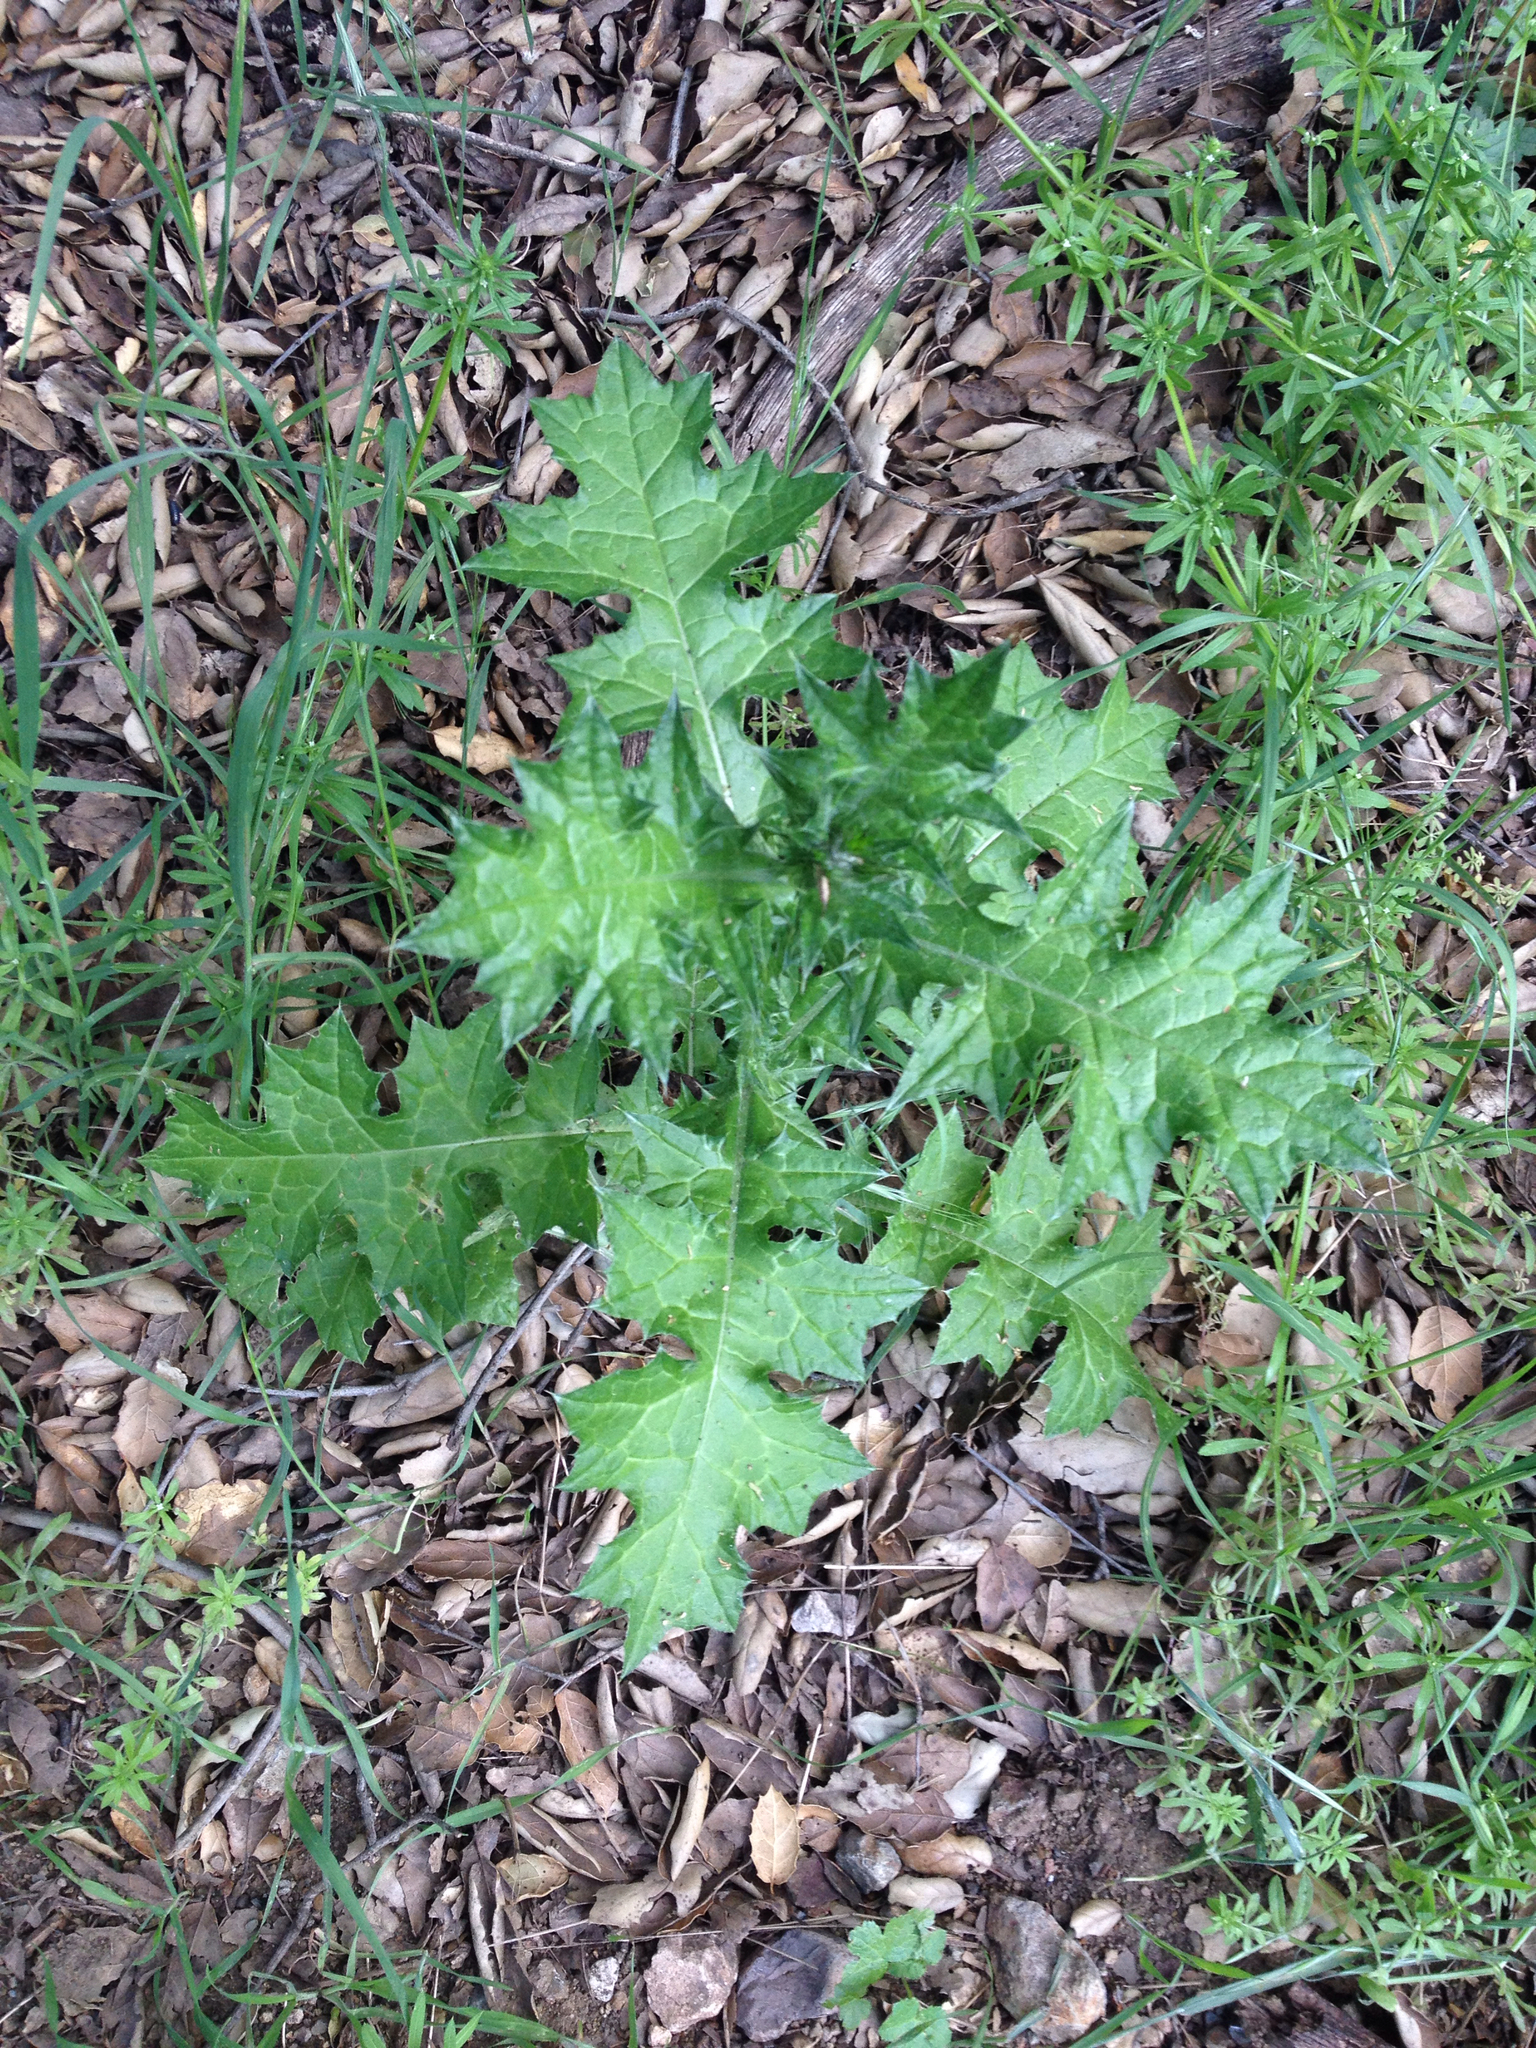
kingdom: Plantae
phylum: Tracheophyta
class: Magnoliopsida
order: Asterales
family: Asteraceae
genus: Carduus
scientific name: Carduus pycnocephalus
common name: Plymouth thistle
